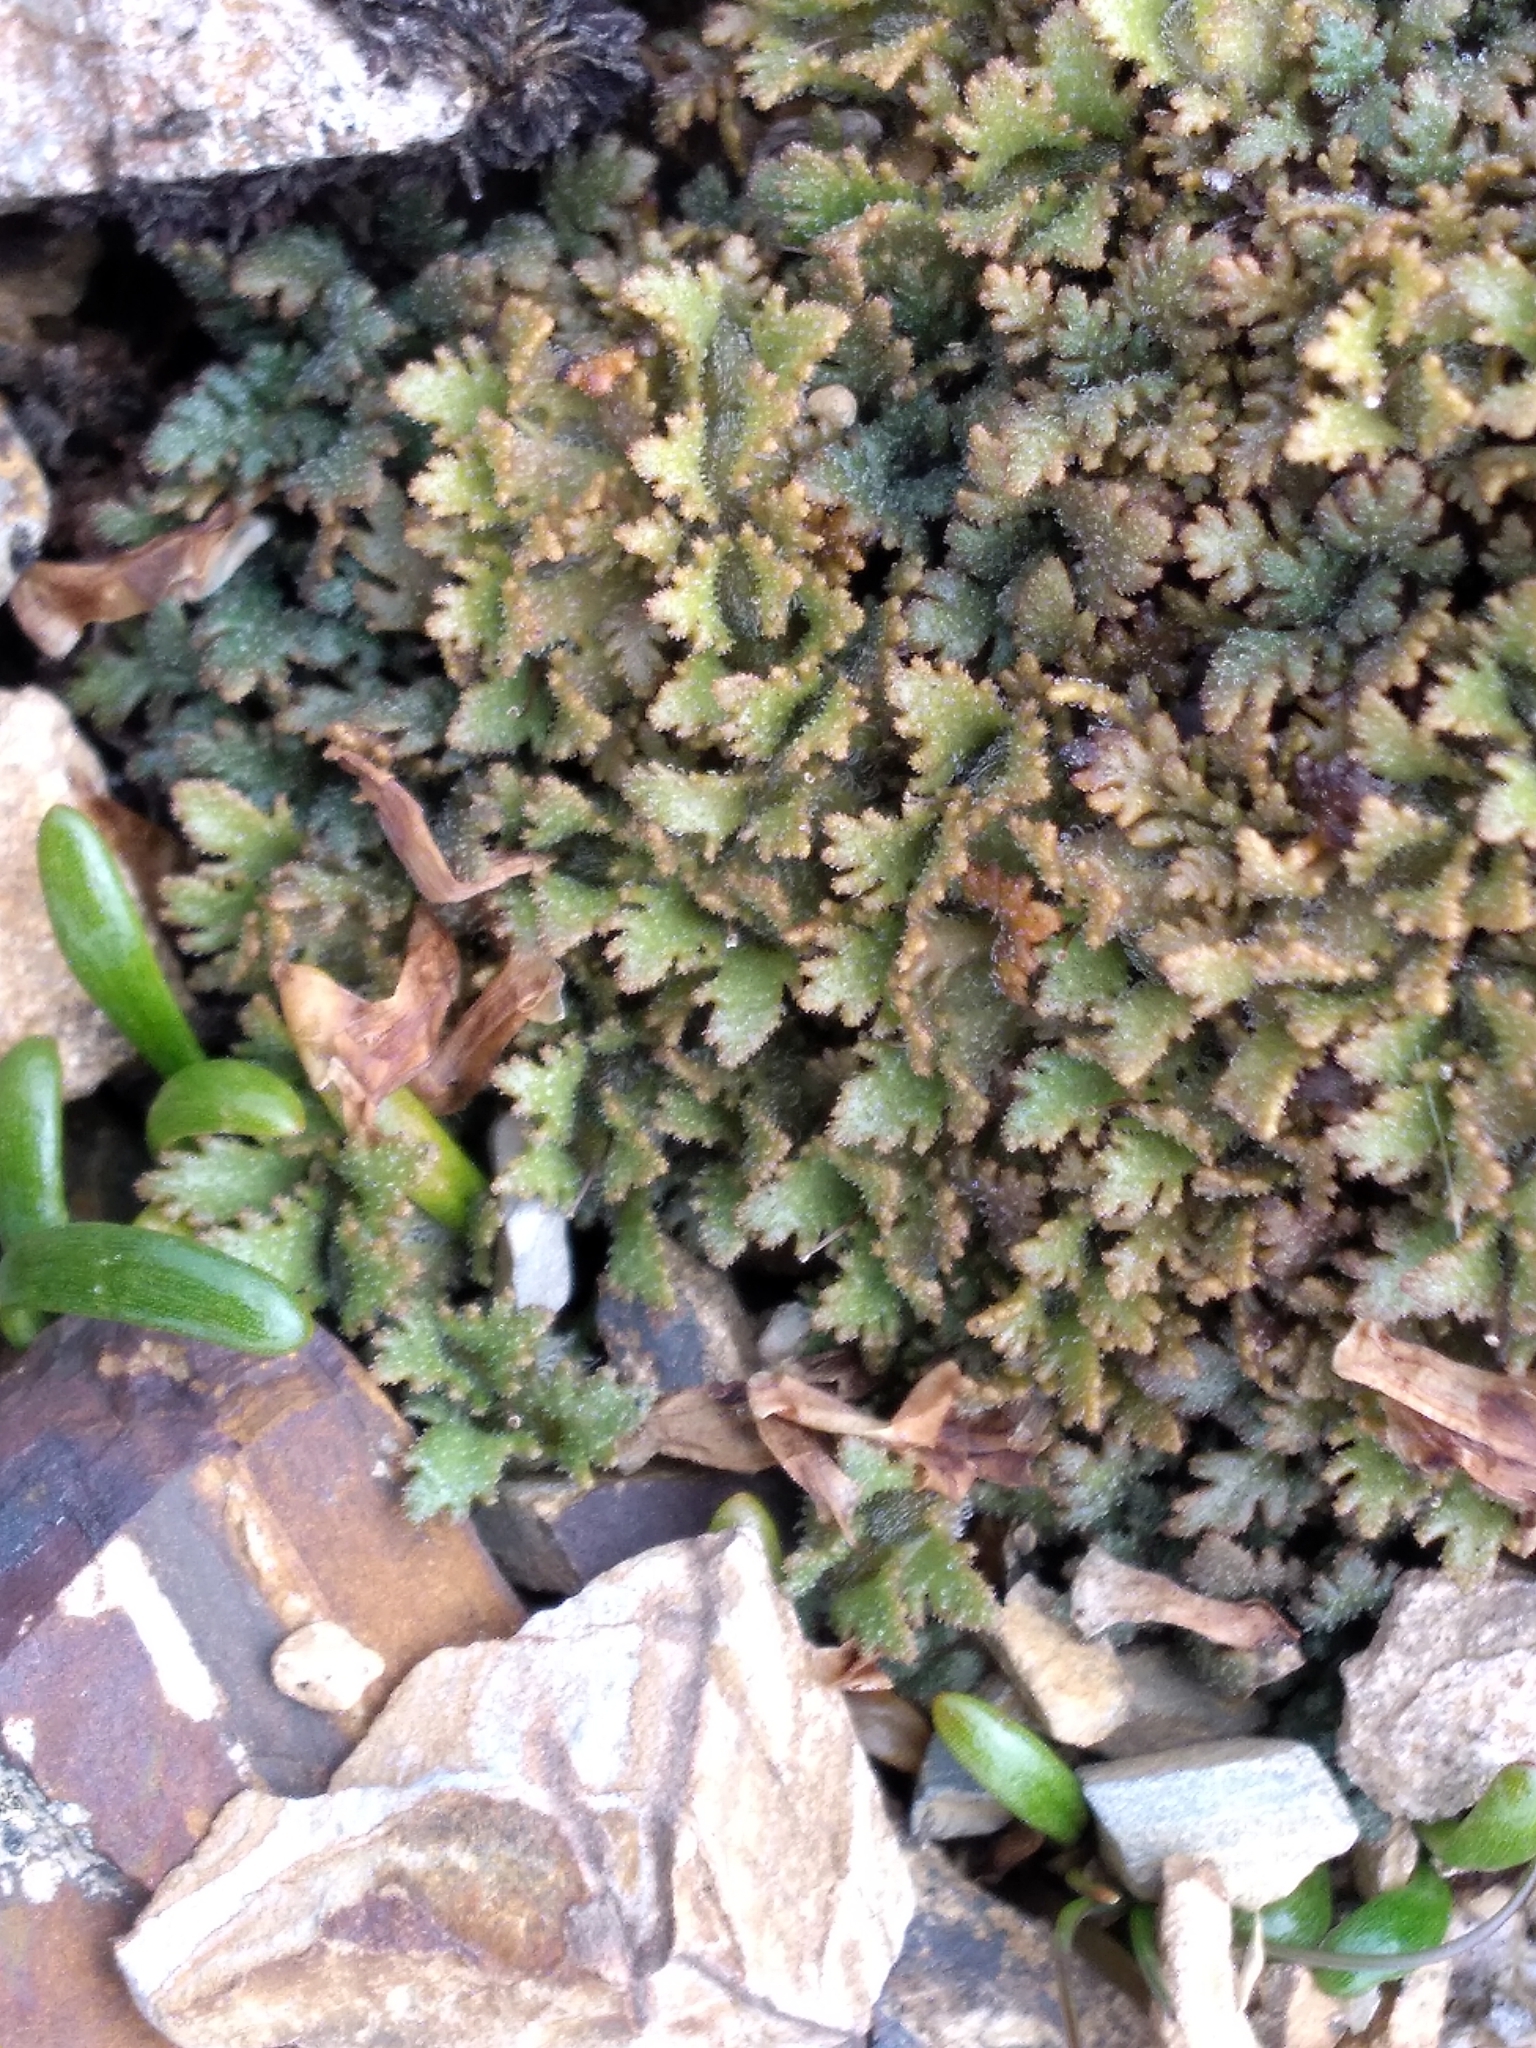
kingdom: Plantae
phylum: Tracheophyta
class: Magnoliopsida
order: Lamiales
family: Plantaginaceae
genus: Veronica
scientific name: Veronica cheesemanii
